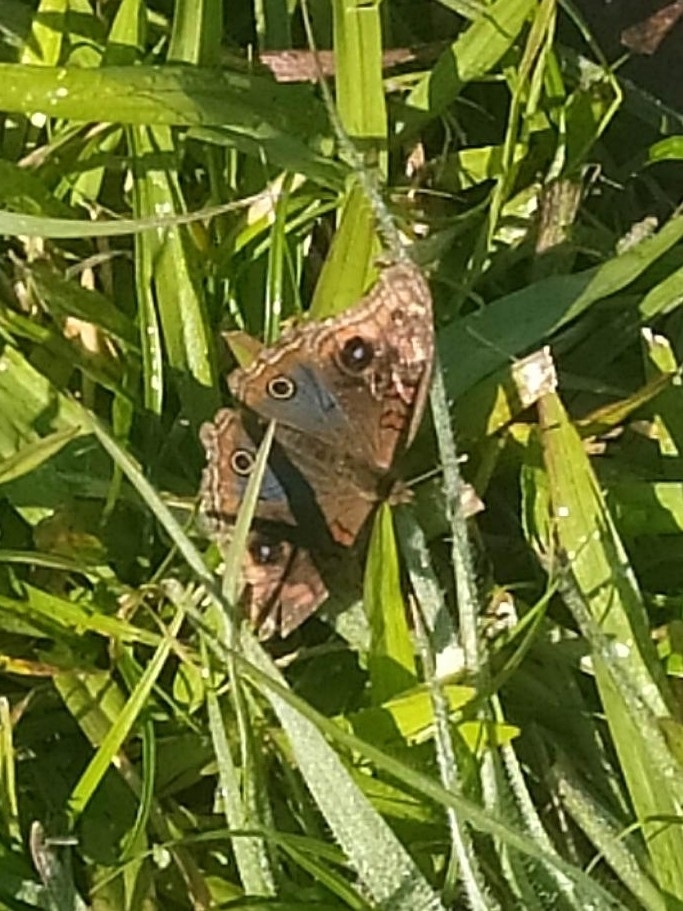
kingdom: Animalia
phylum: Arthropoda
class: Insecta
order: Lepidoptera
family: Nymphalidae
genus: Junonia
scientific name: Junonia lavinia
